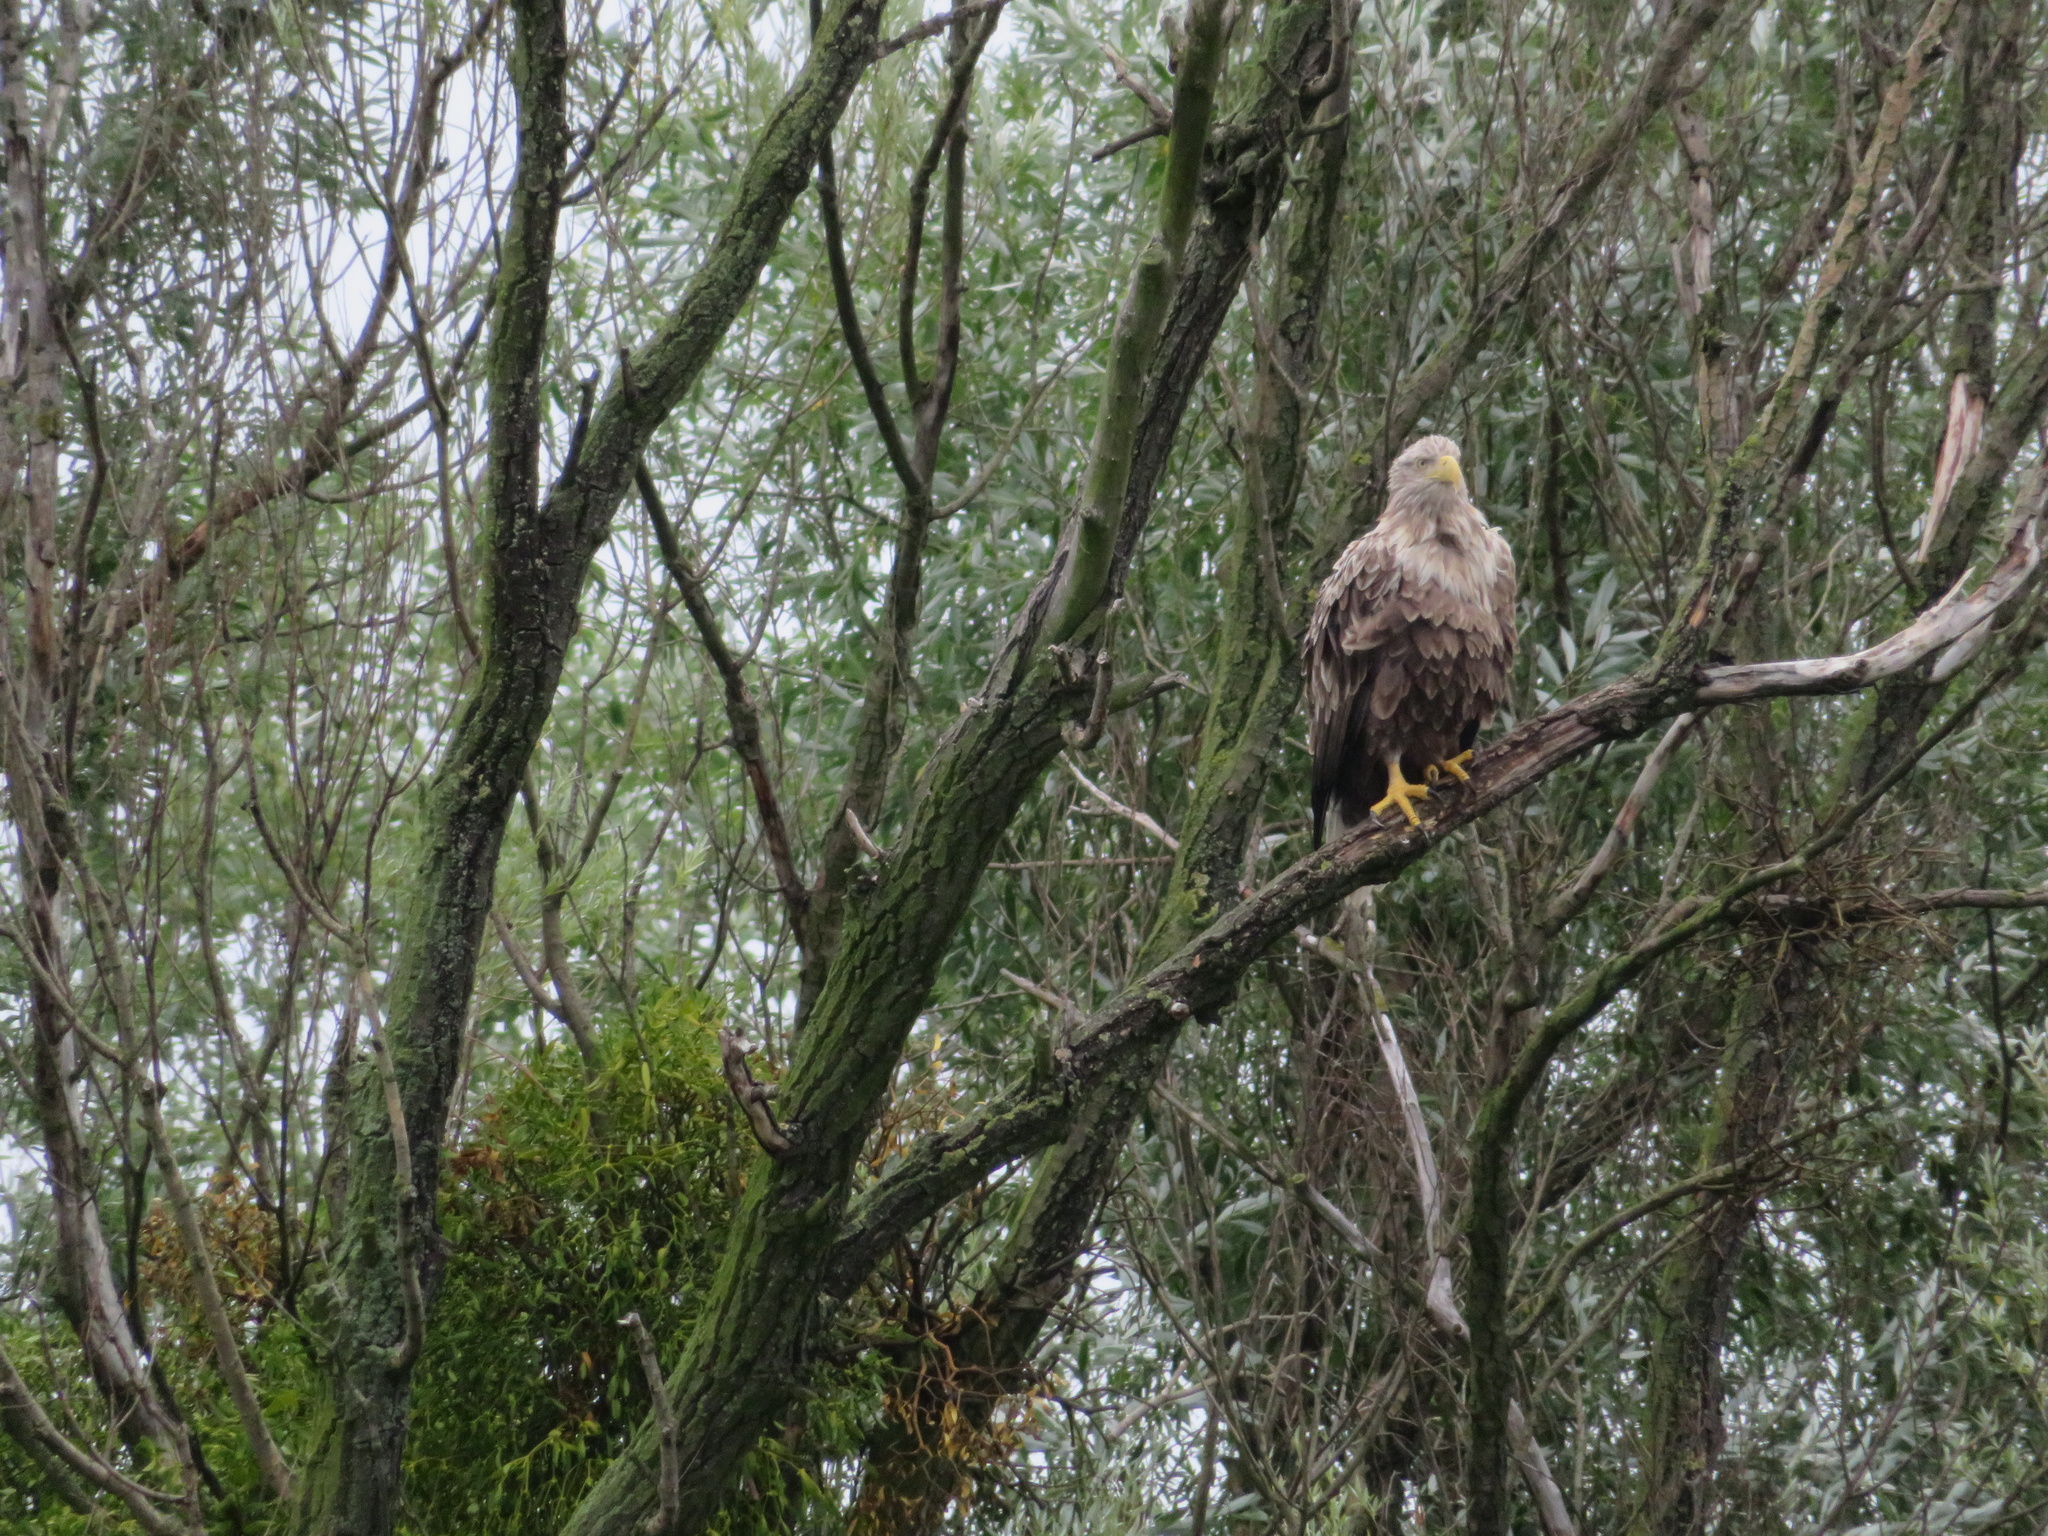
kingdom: Animalia
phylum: Chordata
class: Aves
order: Accipitriformes
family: Accipitridae
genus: Haliaeetus
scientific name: Haliaeetus albicilla
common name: White-tailed eagle
